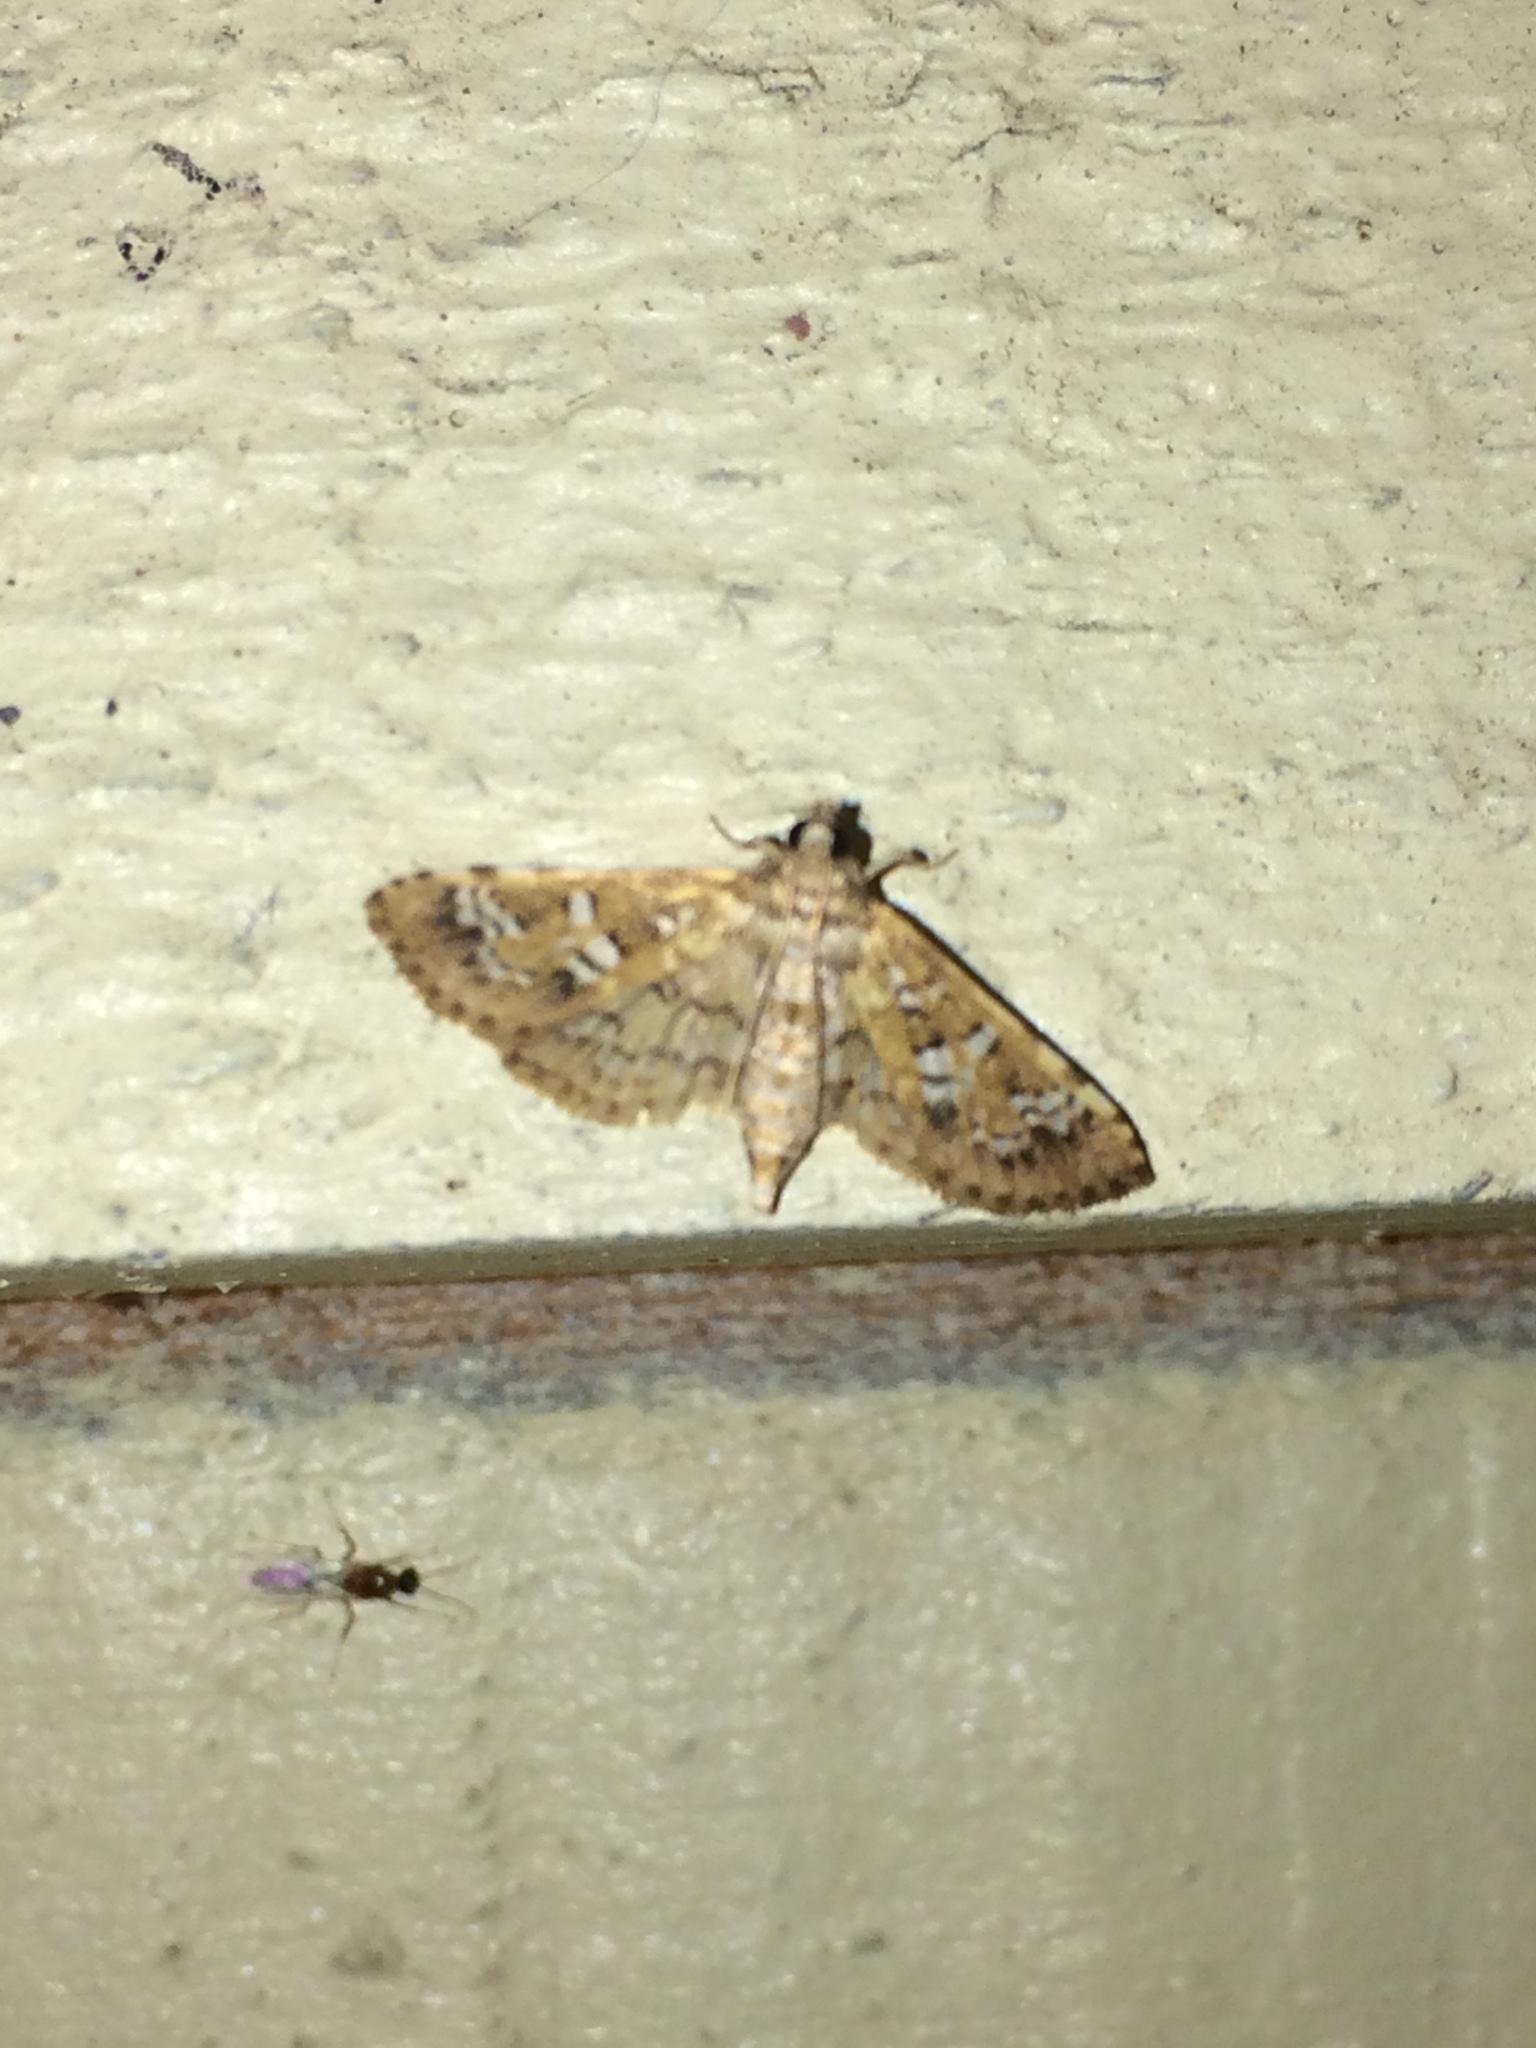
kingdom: Animalia
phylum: Arthropoda
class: Insecta
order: Lepidoptera
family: Crambidae
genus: Samea
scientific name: Samea multiplicalis
